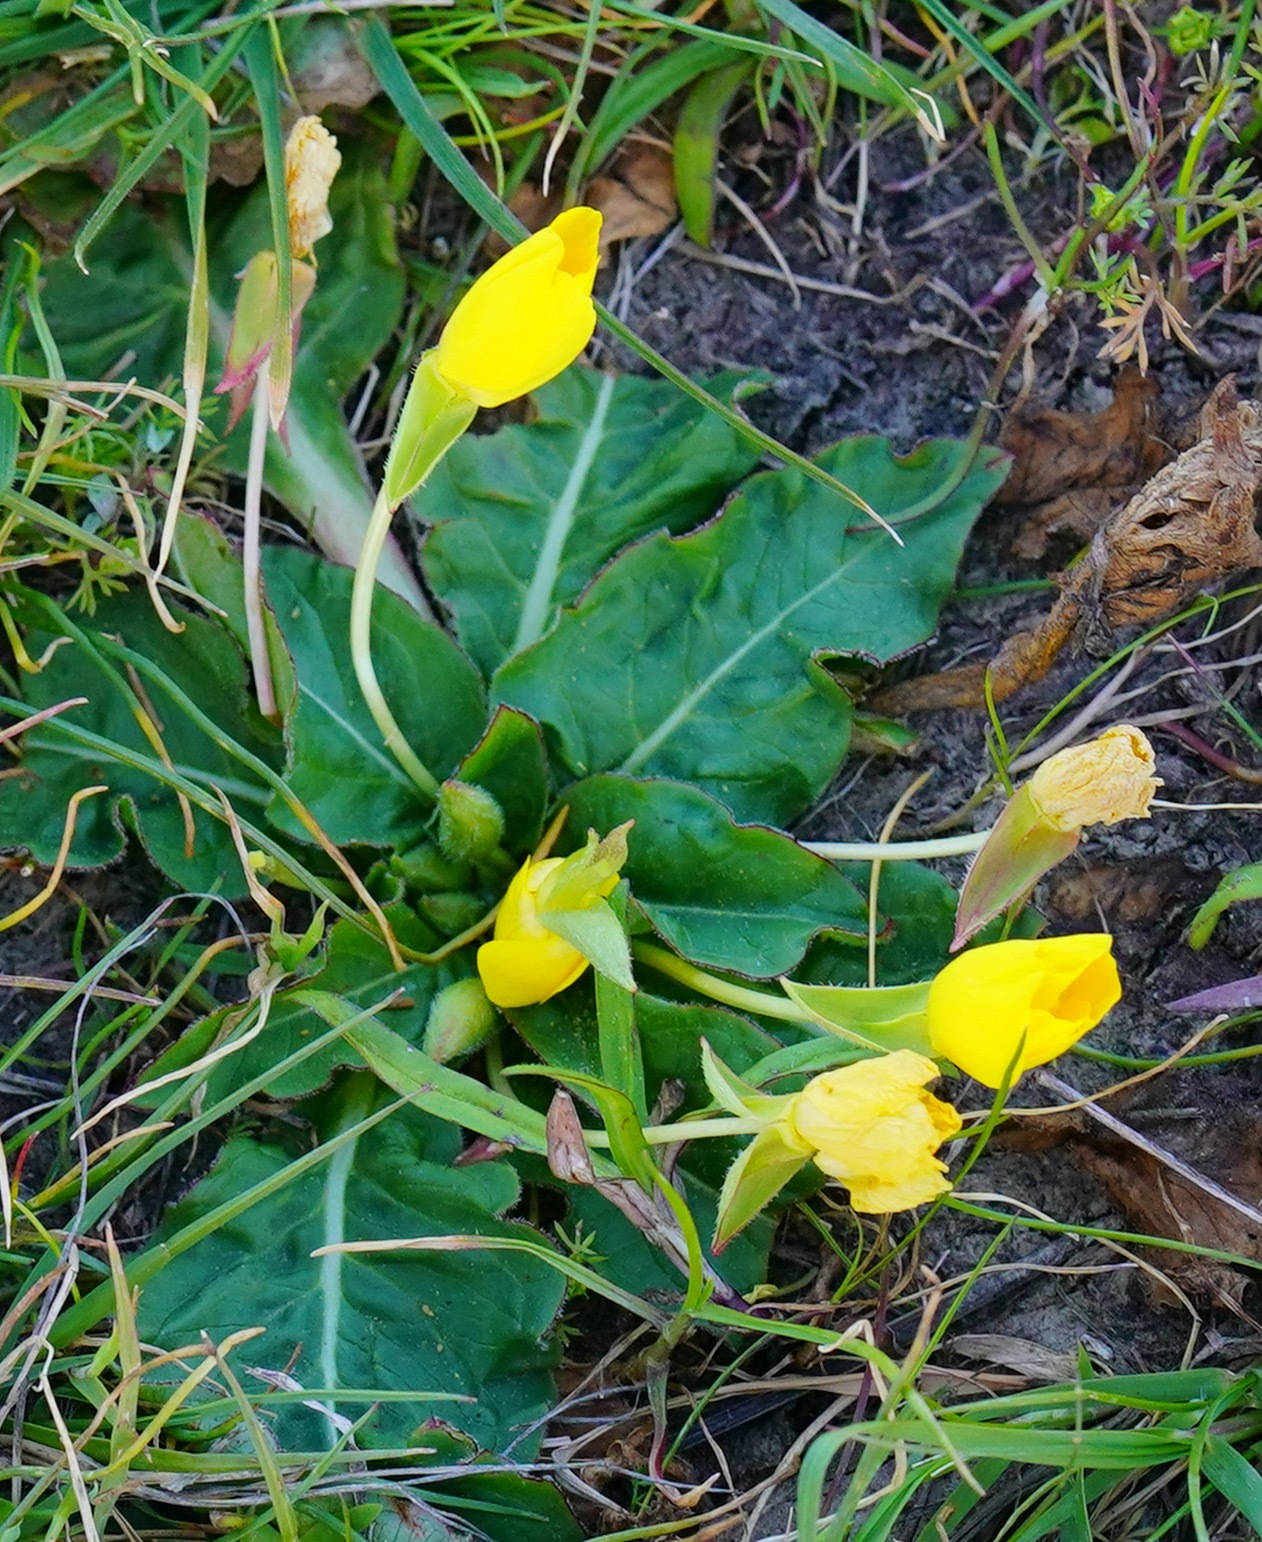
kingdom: Plantae
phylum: Tracheophyta
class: Magnoliopsida
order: Myrtales
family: Onagraceae
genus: Taraxia
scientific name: Taraxia ovata
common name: Goldeneggs
